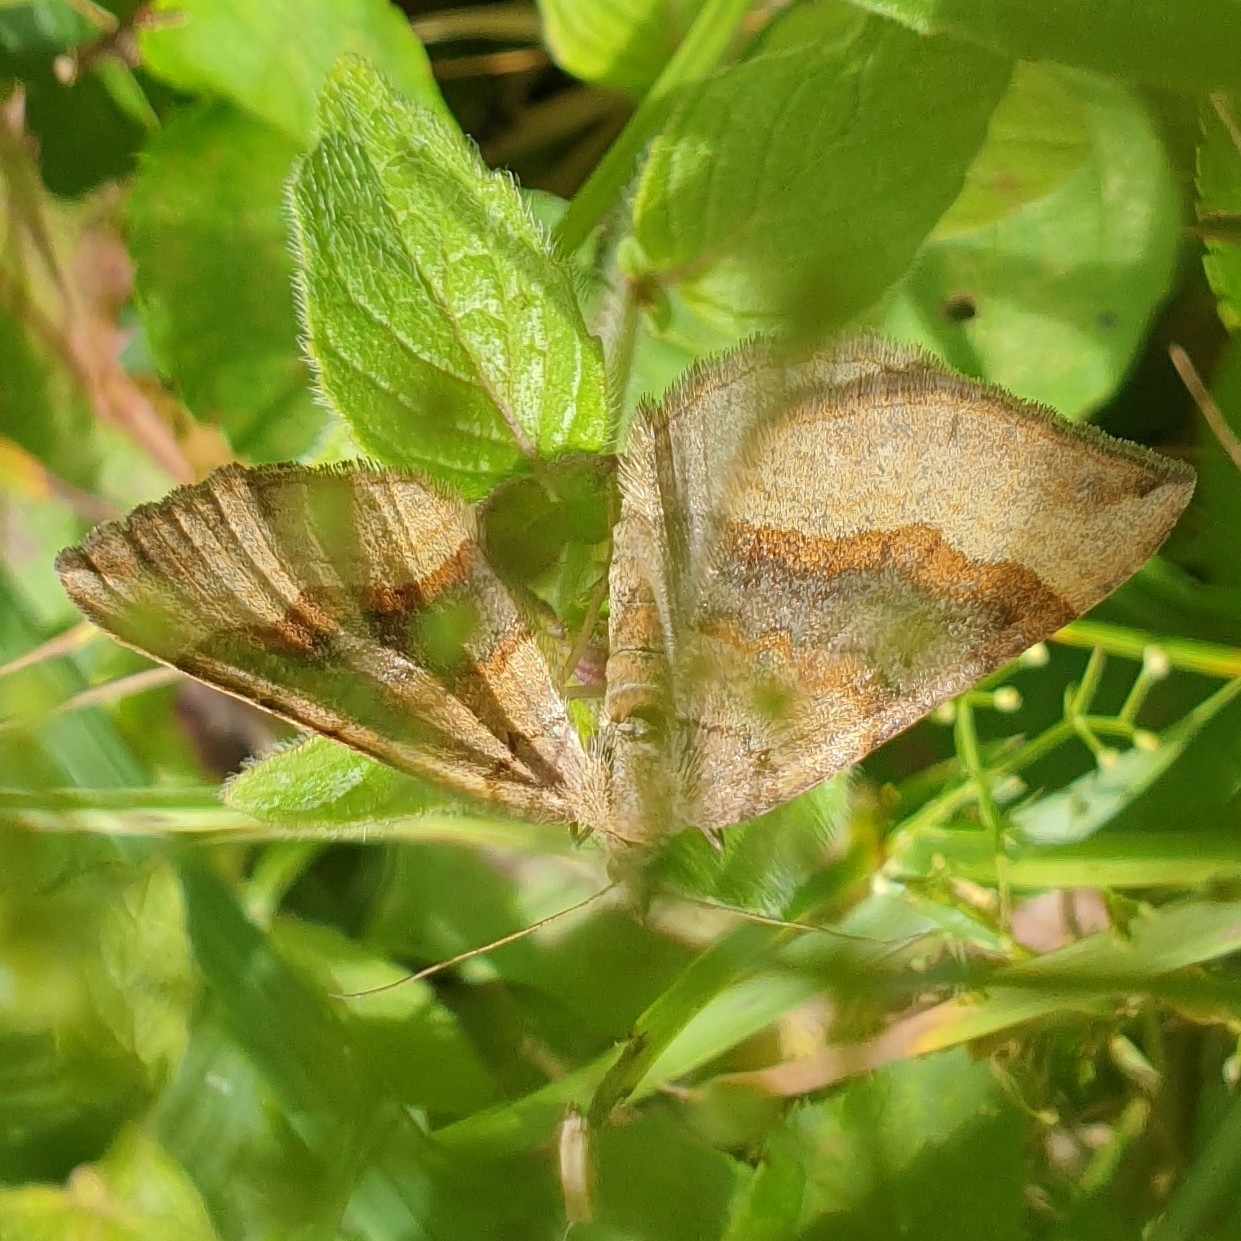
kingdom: Animalia
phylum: Arthropoda
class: Insecta
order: Lepidoptera
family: Geometridae
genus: Scotopteryx
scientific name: Scotopteryx chenopodiata
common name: Shaded broad-bar
